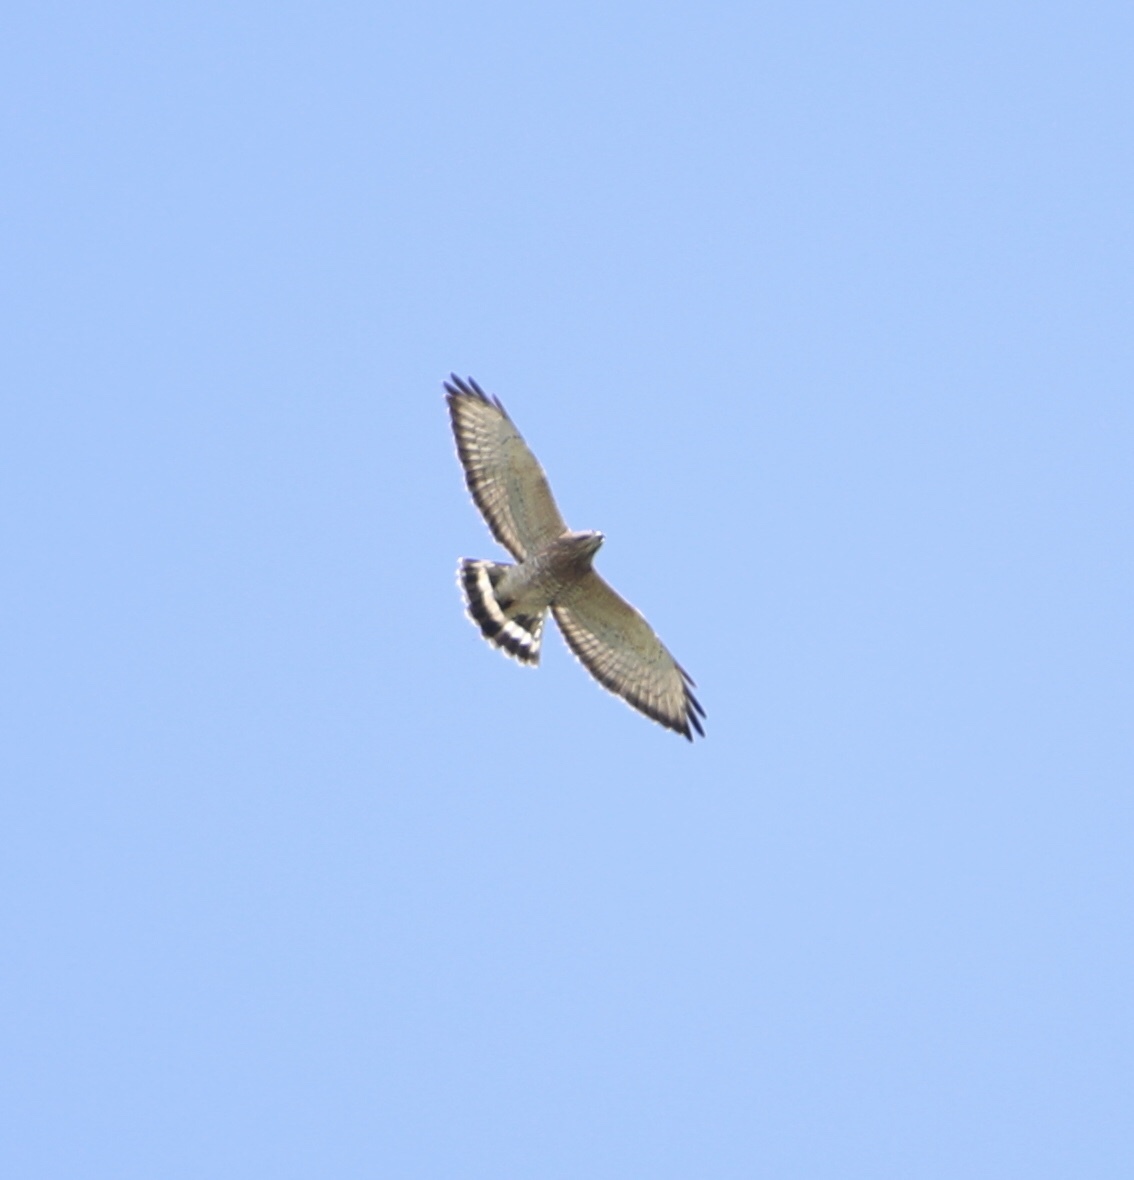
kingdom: Animalia
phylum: Chordata
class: Aves
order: Accipitriformes
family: Accipitridae
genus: Buteo
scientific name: Buteo platypterus
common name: Broad-winged hawk
